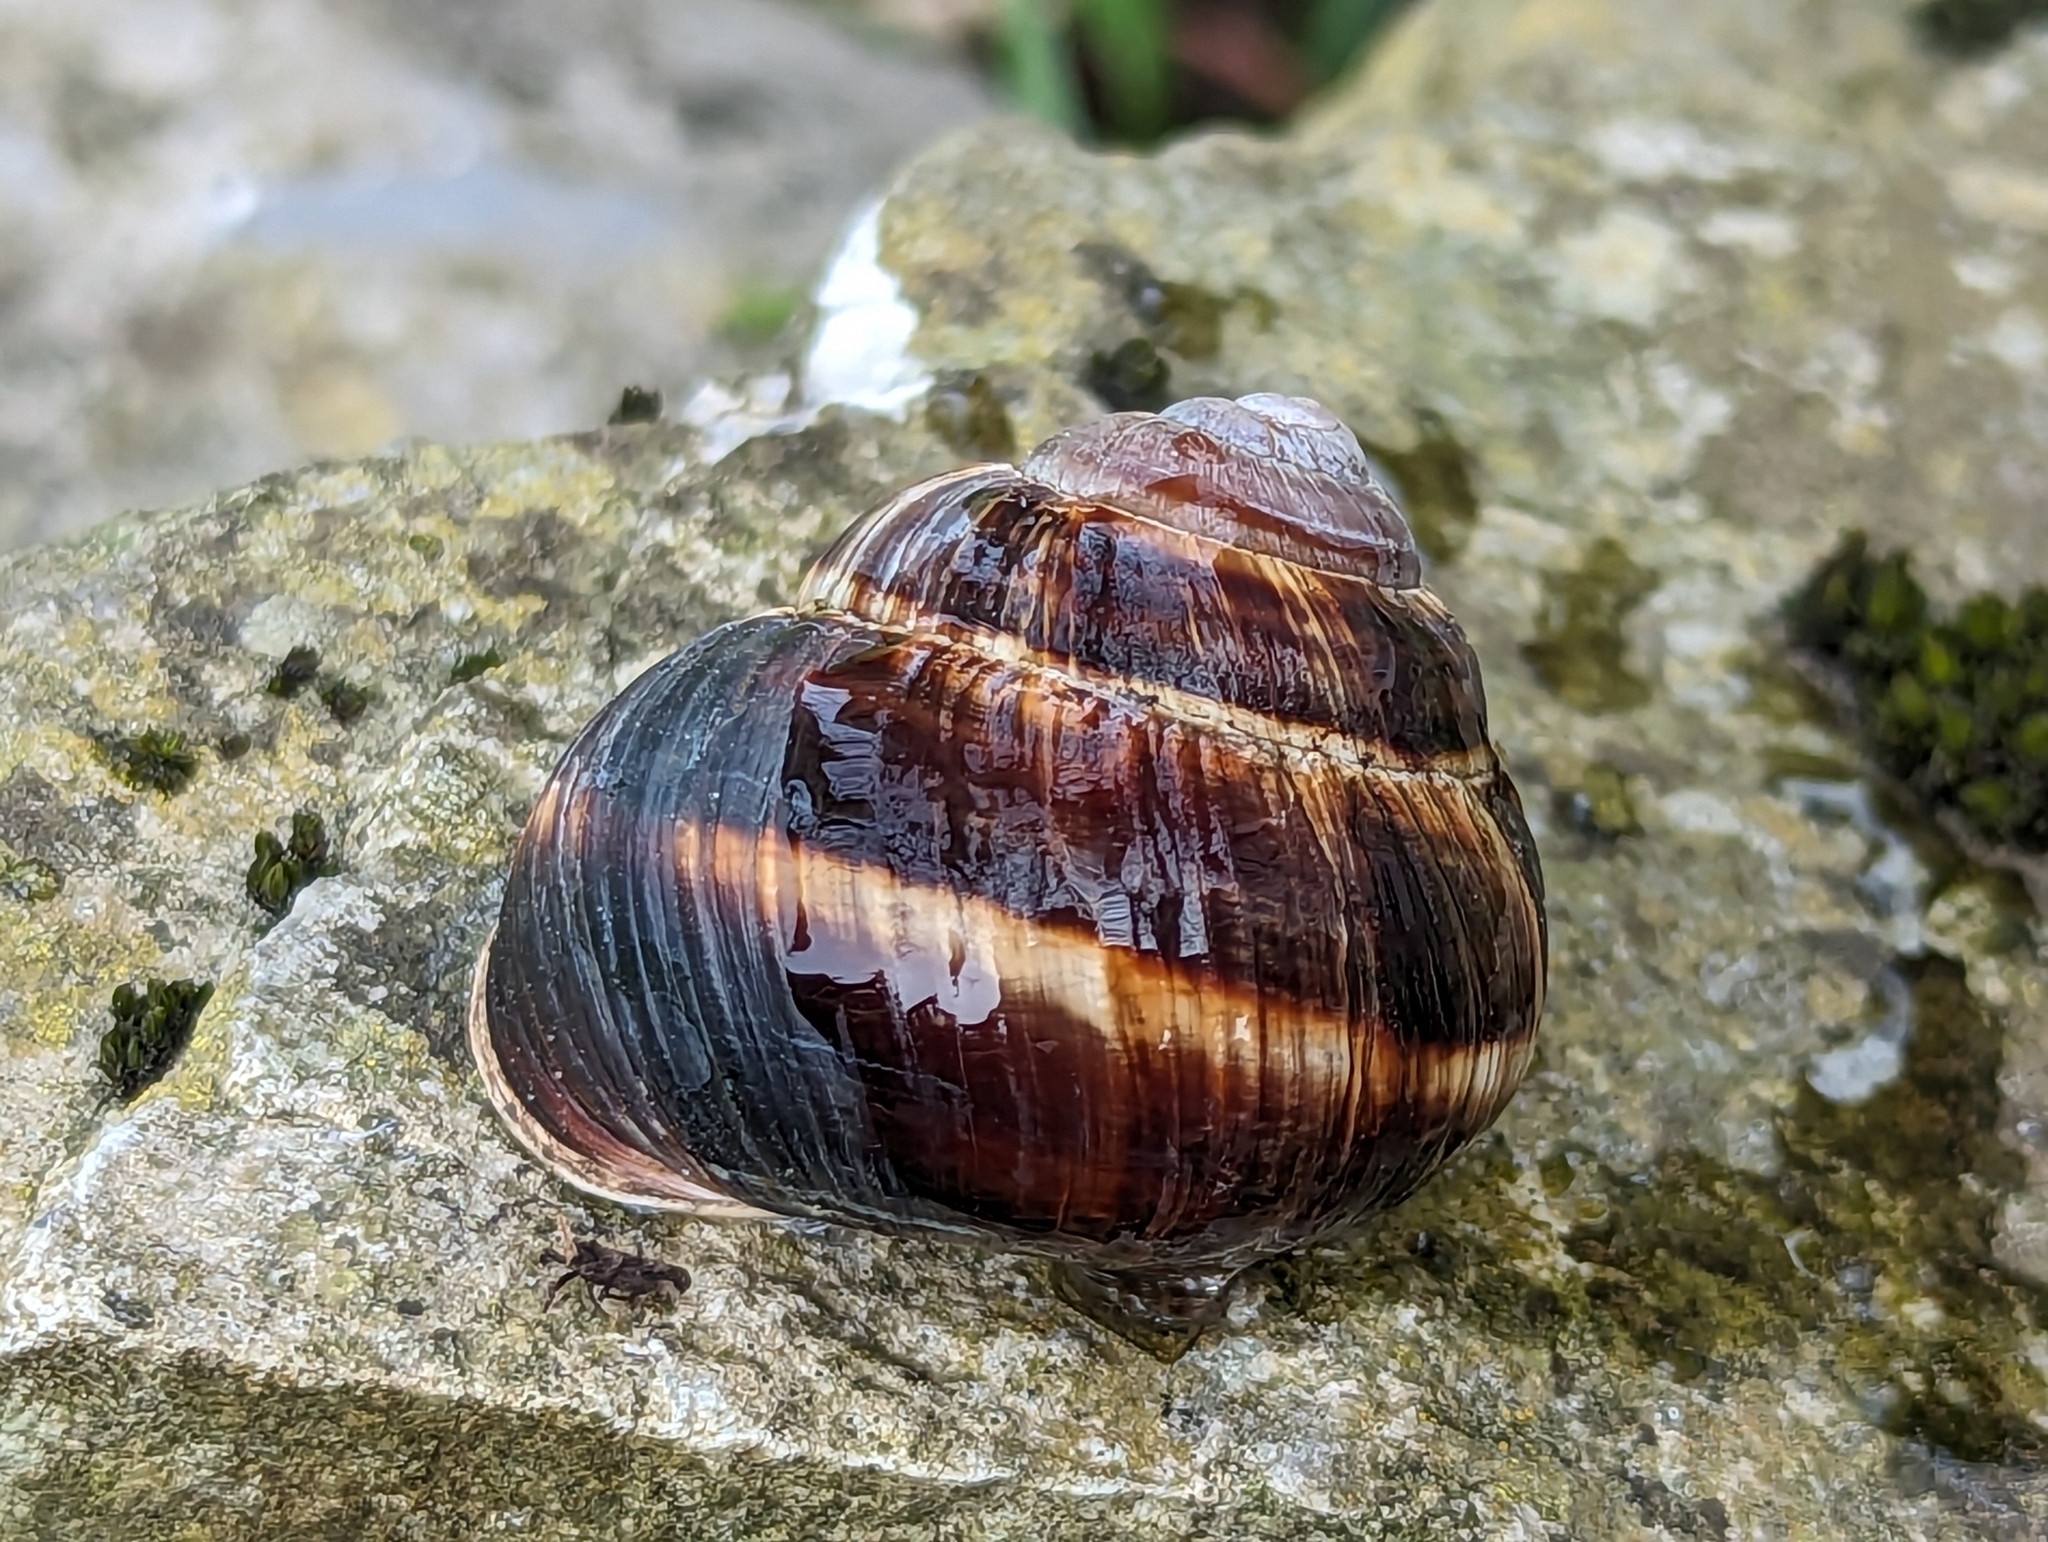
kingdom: Animalia
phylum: Mollusca
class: Gastropoda
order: Stylommatophora
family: Helicidae
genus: Helix
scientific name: Helix lucorum
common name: Turkish snail
